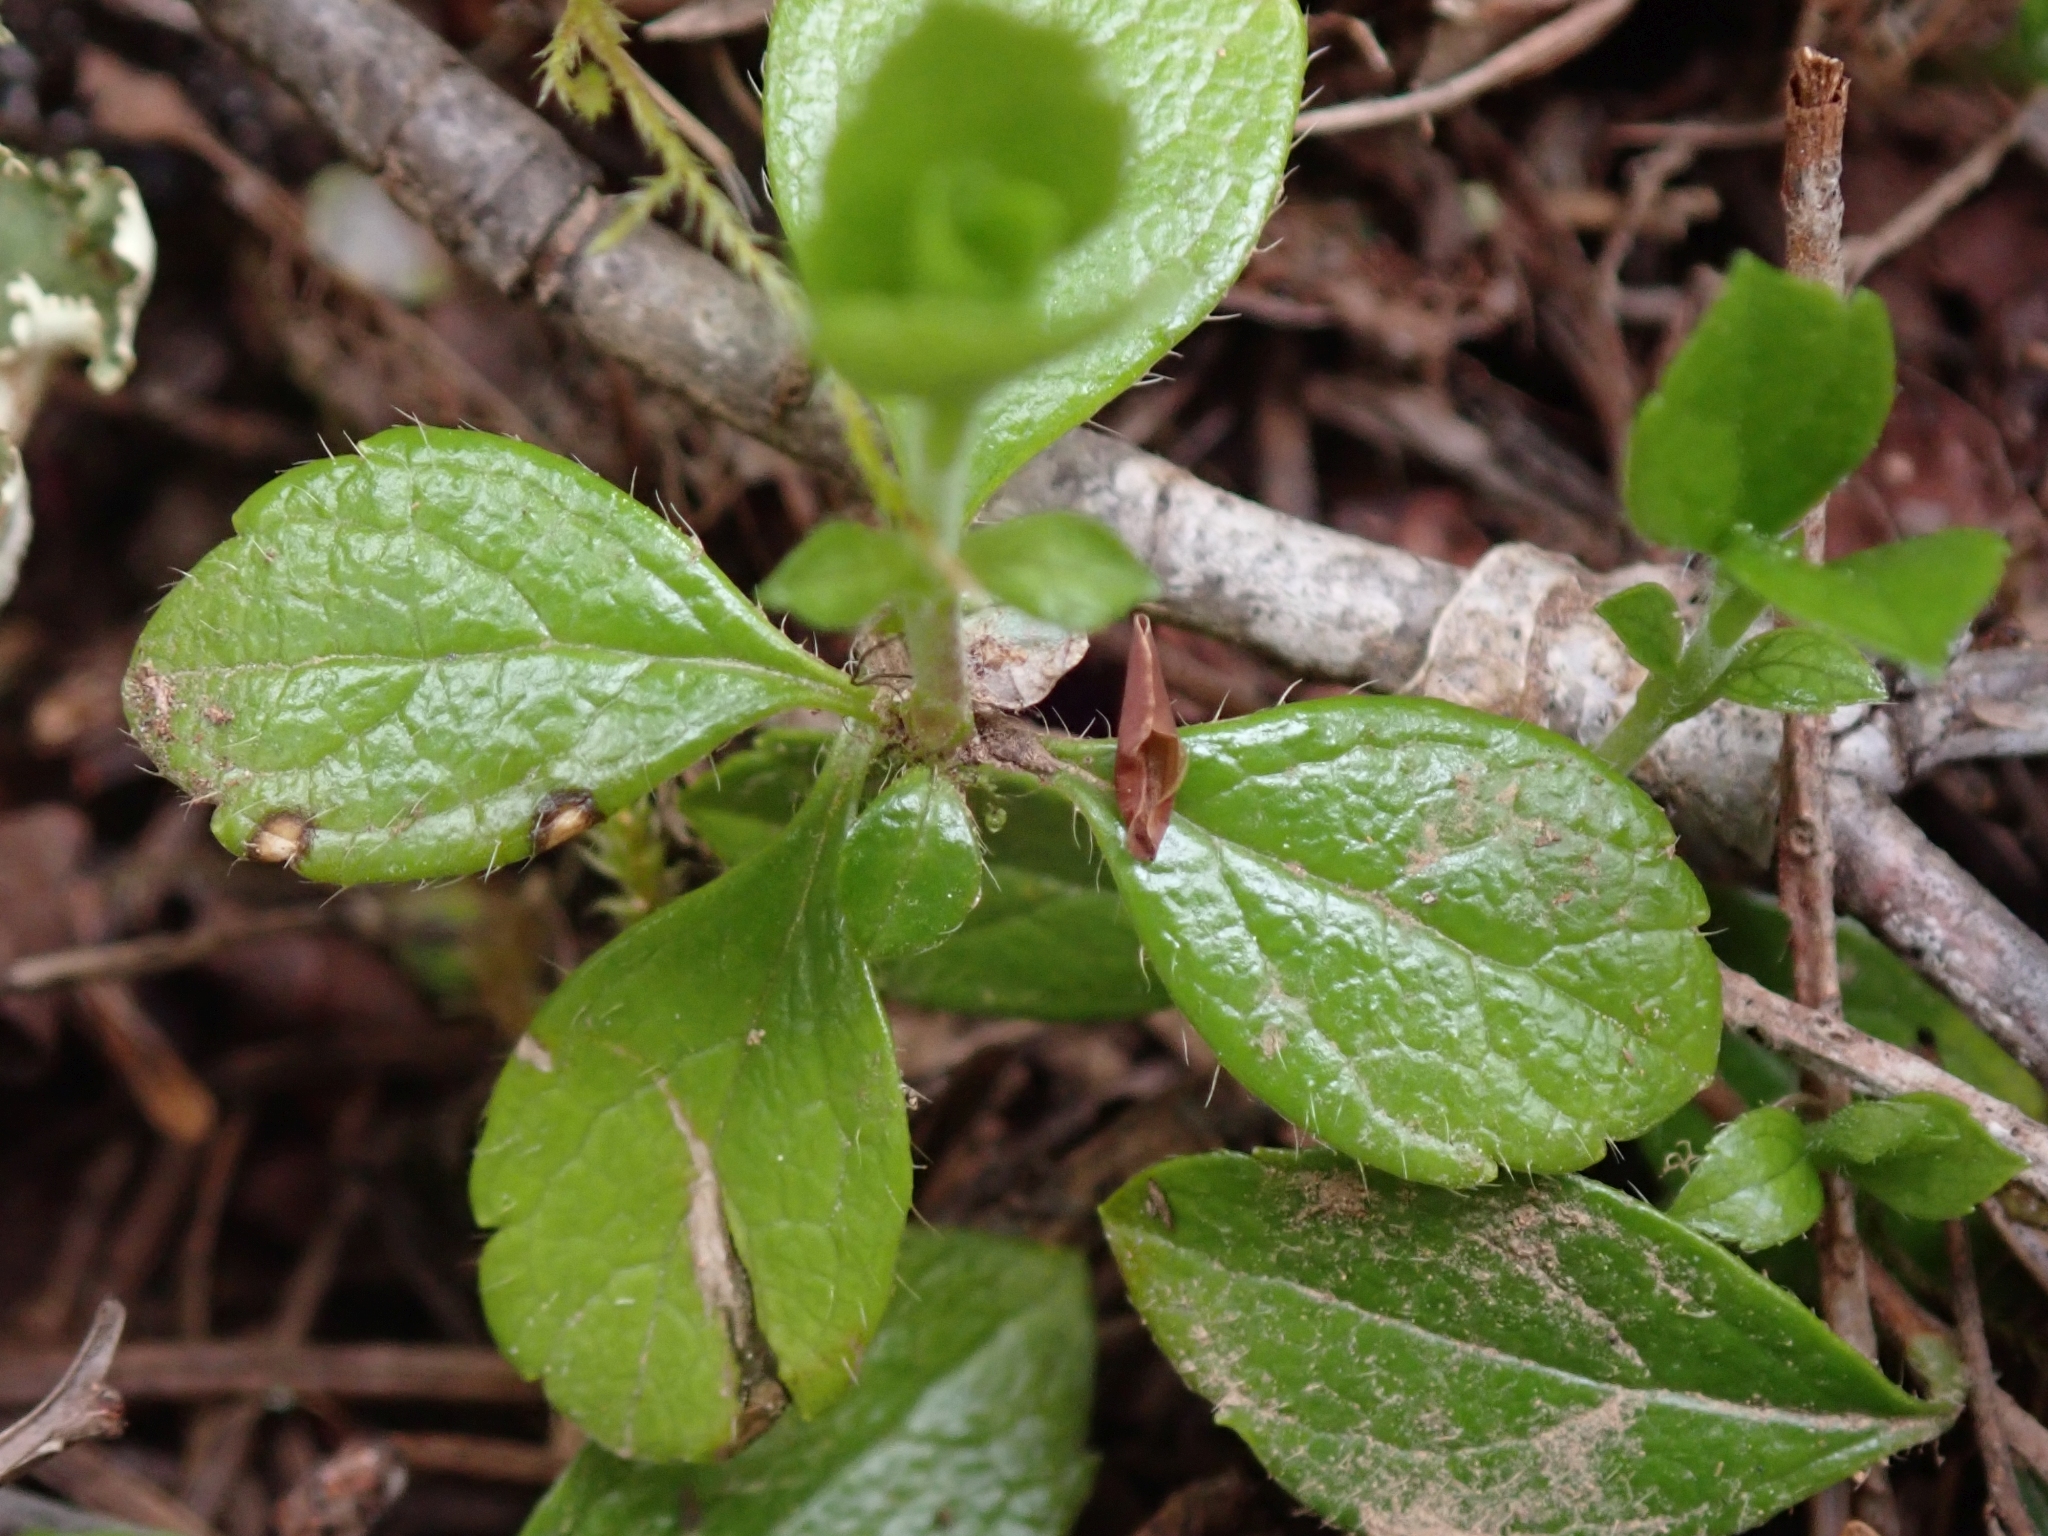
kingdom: Plantae
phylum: Tracheophyta
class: Magnoliopsida
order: Dipsacales
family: Caprifoliaceae
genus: Linnaea
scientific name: Linnaea borealis
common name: Twinflower
